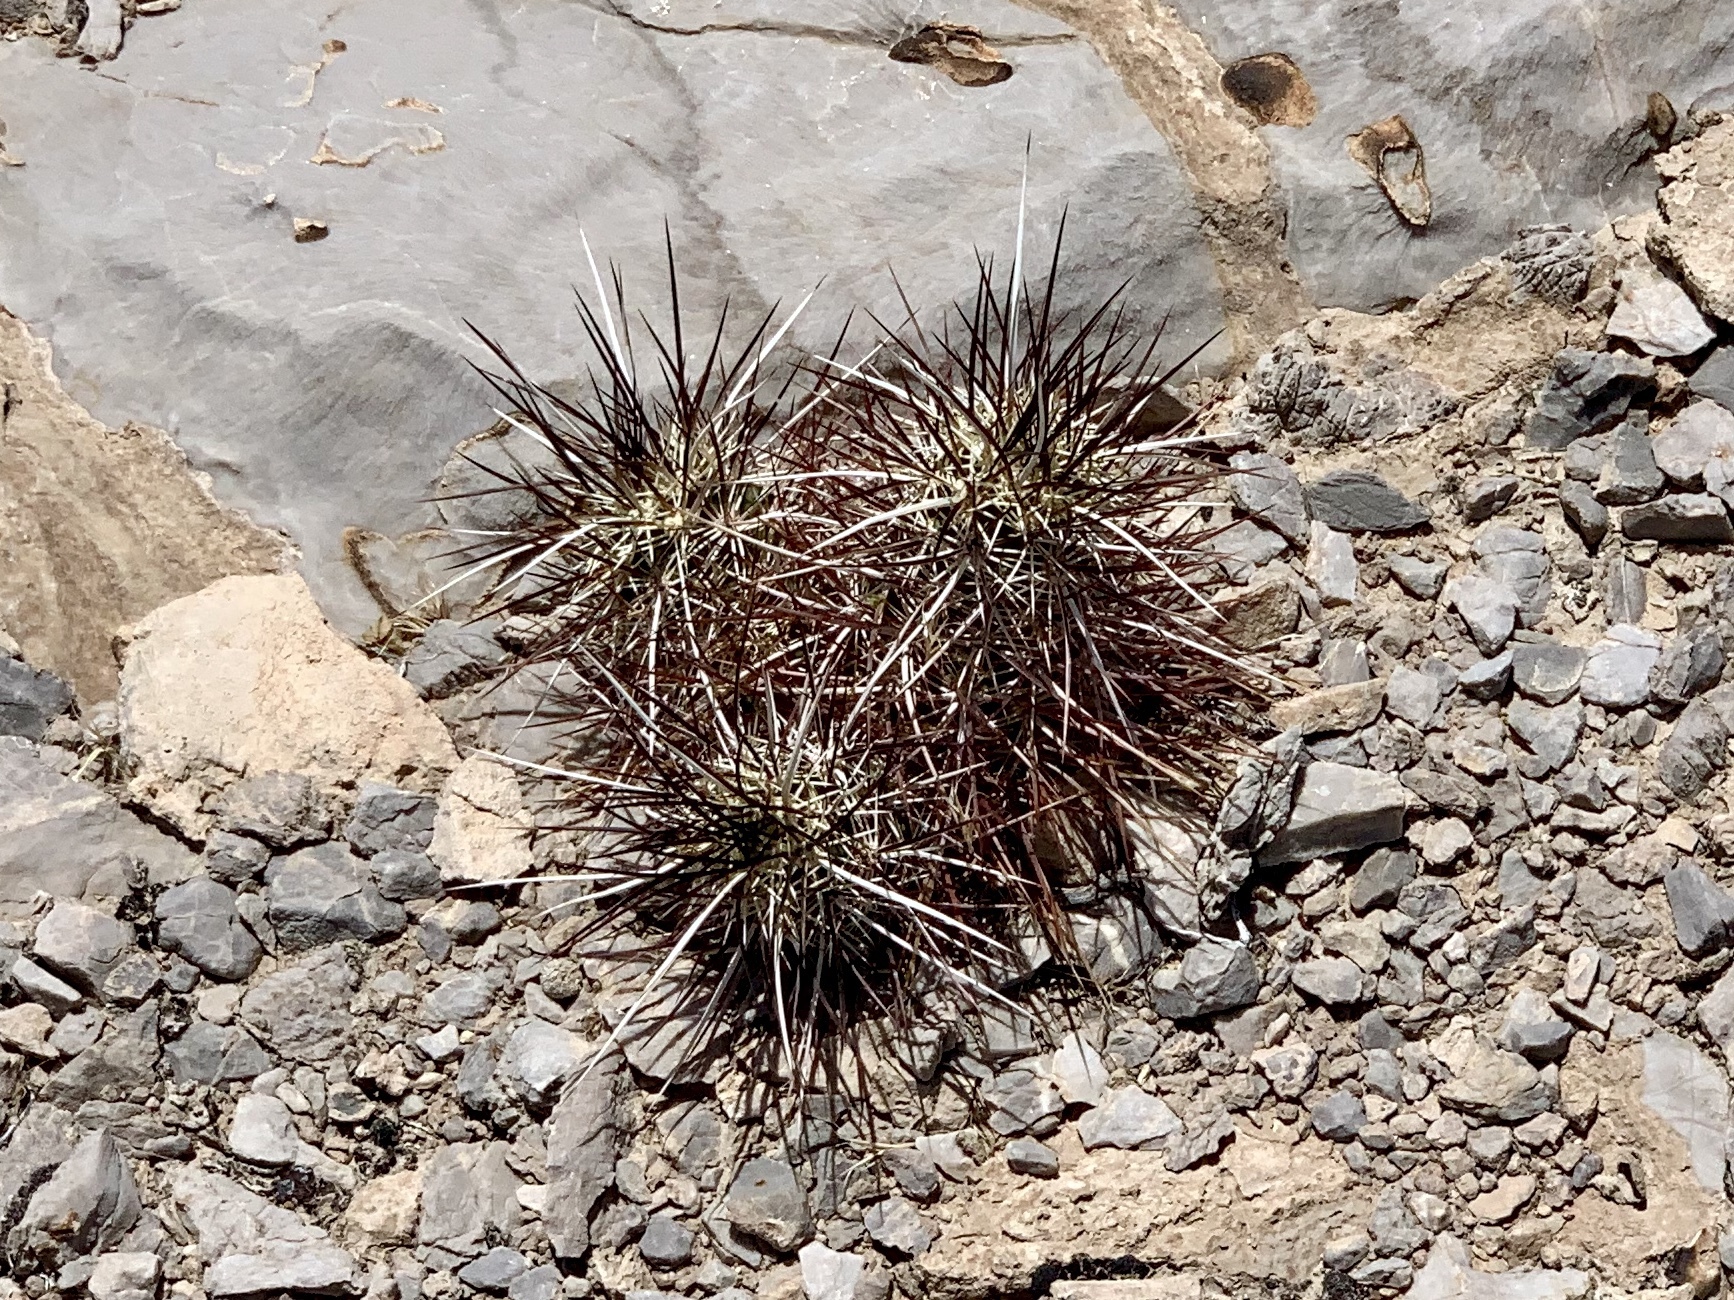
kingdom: Plantae
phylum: Tracheophyta
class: Magnoliopsida
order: Caryophyllales
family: Cactaceae
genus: Echinocereus
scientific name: Echinocereus engelmannii
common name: Engelmann's hedgehog cactus
